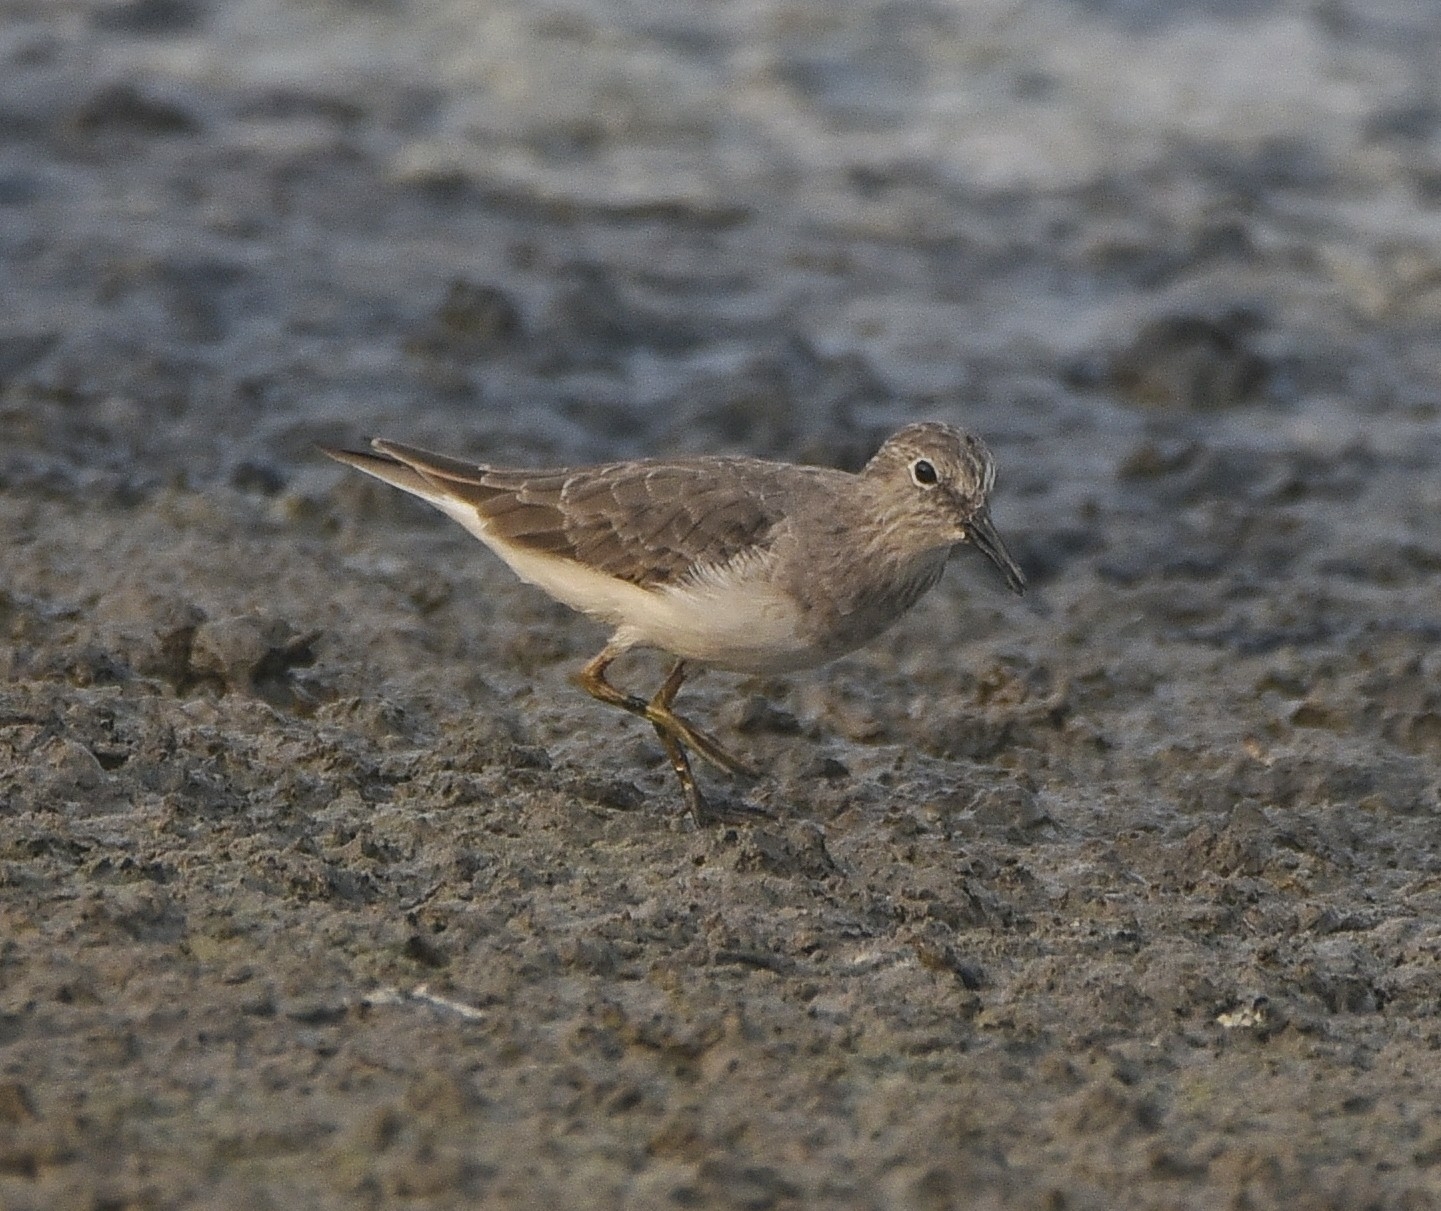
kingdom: Animalia
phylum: Chordata
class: Aves
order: Charadriiformes
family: Scolopacidae
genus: Calidris
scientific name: Calidris temminckii
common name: Temminck's stint
